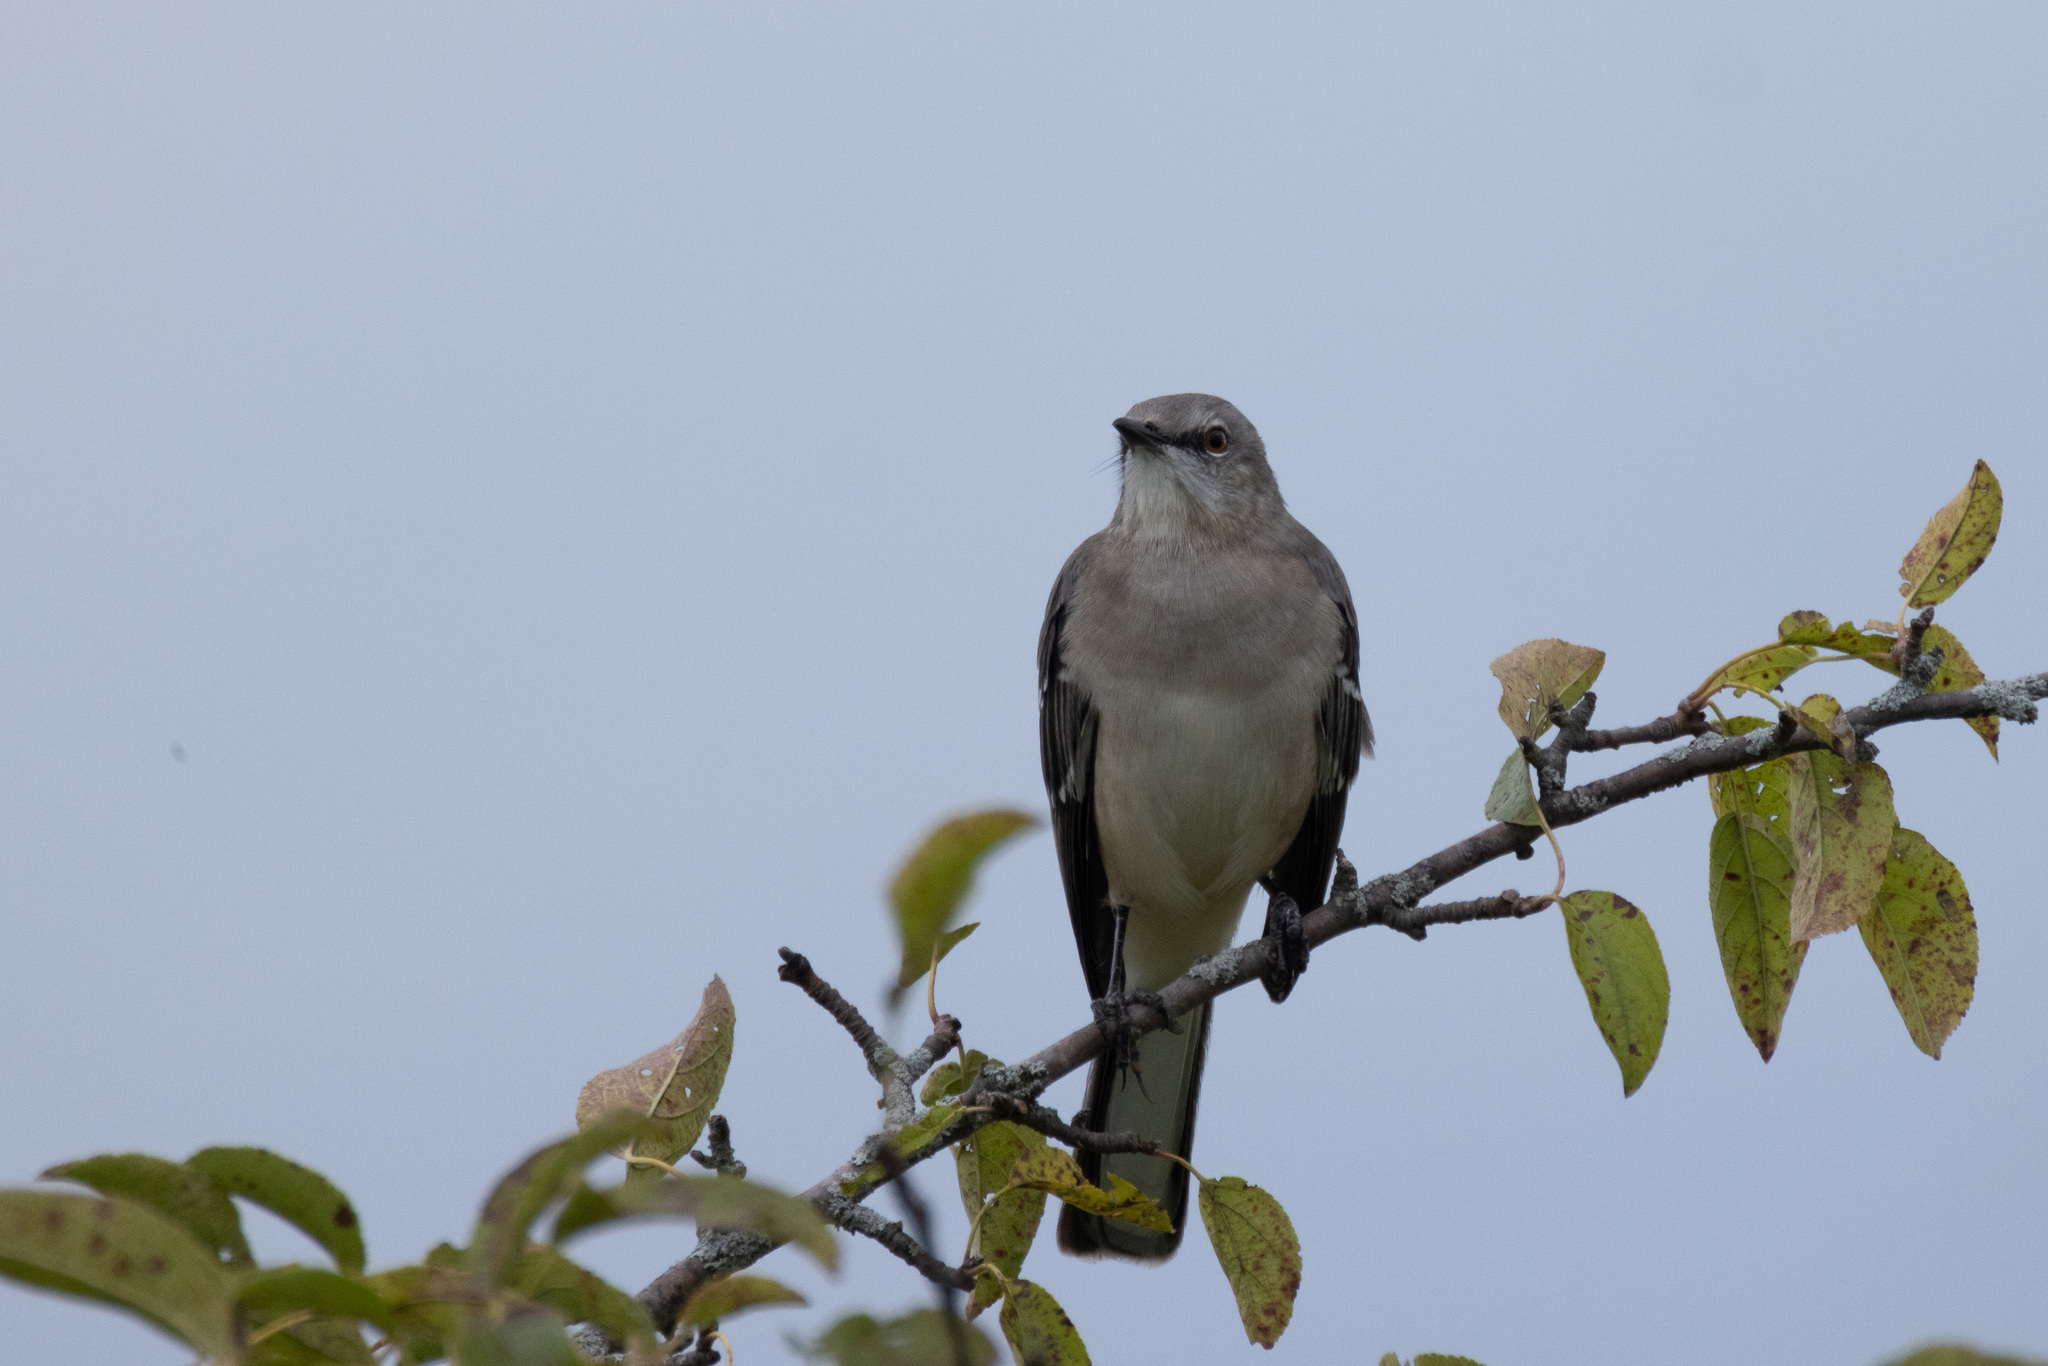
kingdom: Animalia
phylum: Chordata
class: Aves
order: Passeriformes
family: Mimidae
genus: Mimus
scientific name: Mimus polyglottos
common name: Northern mockingbird
